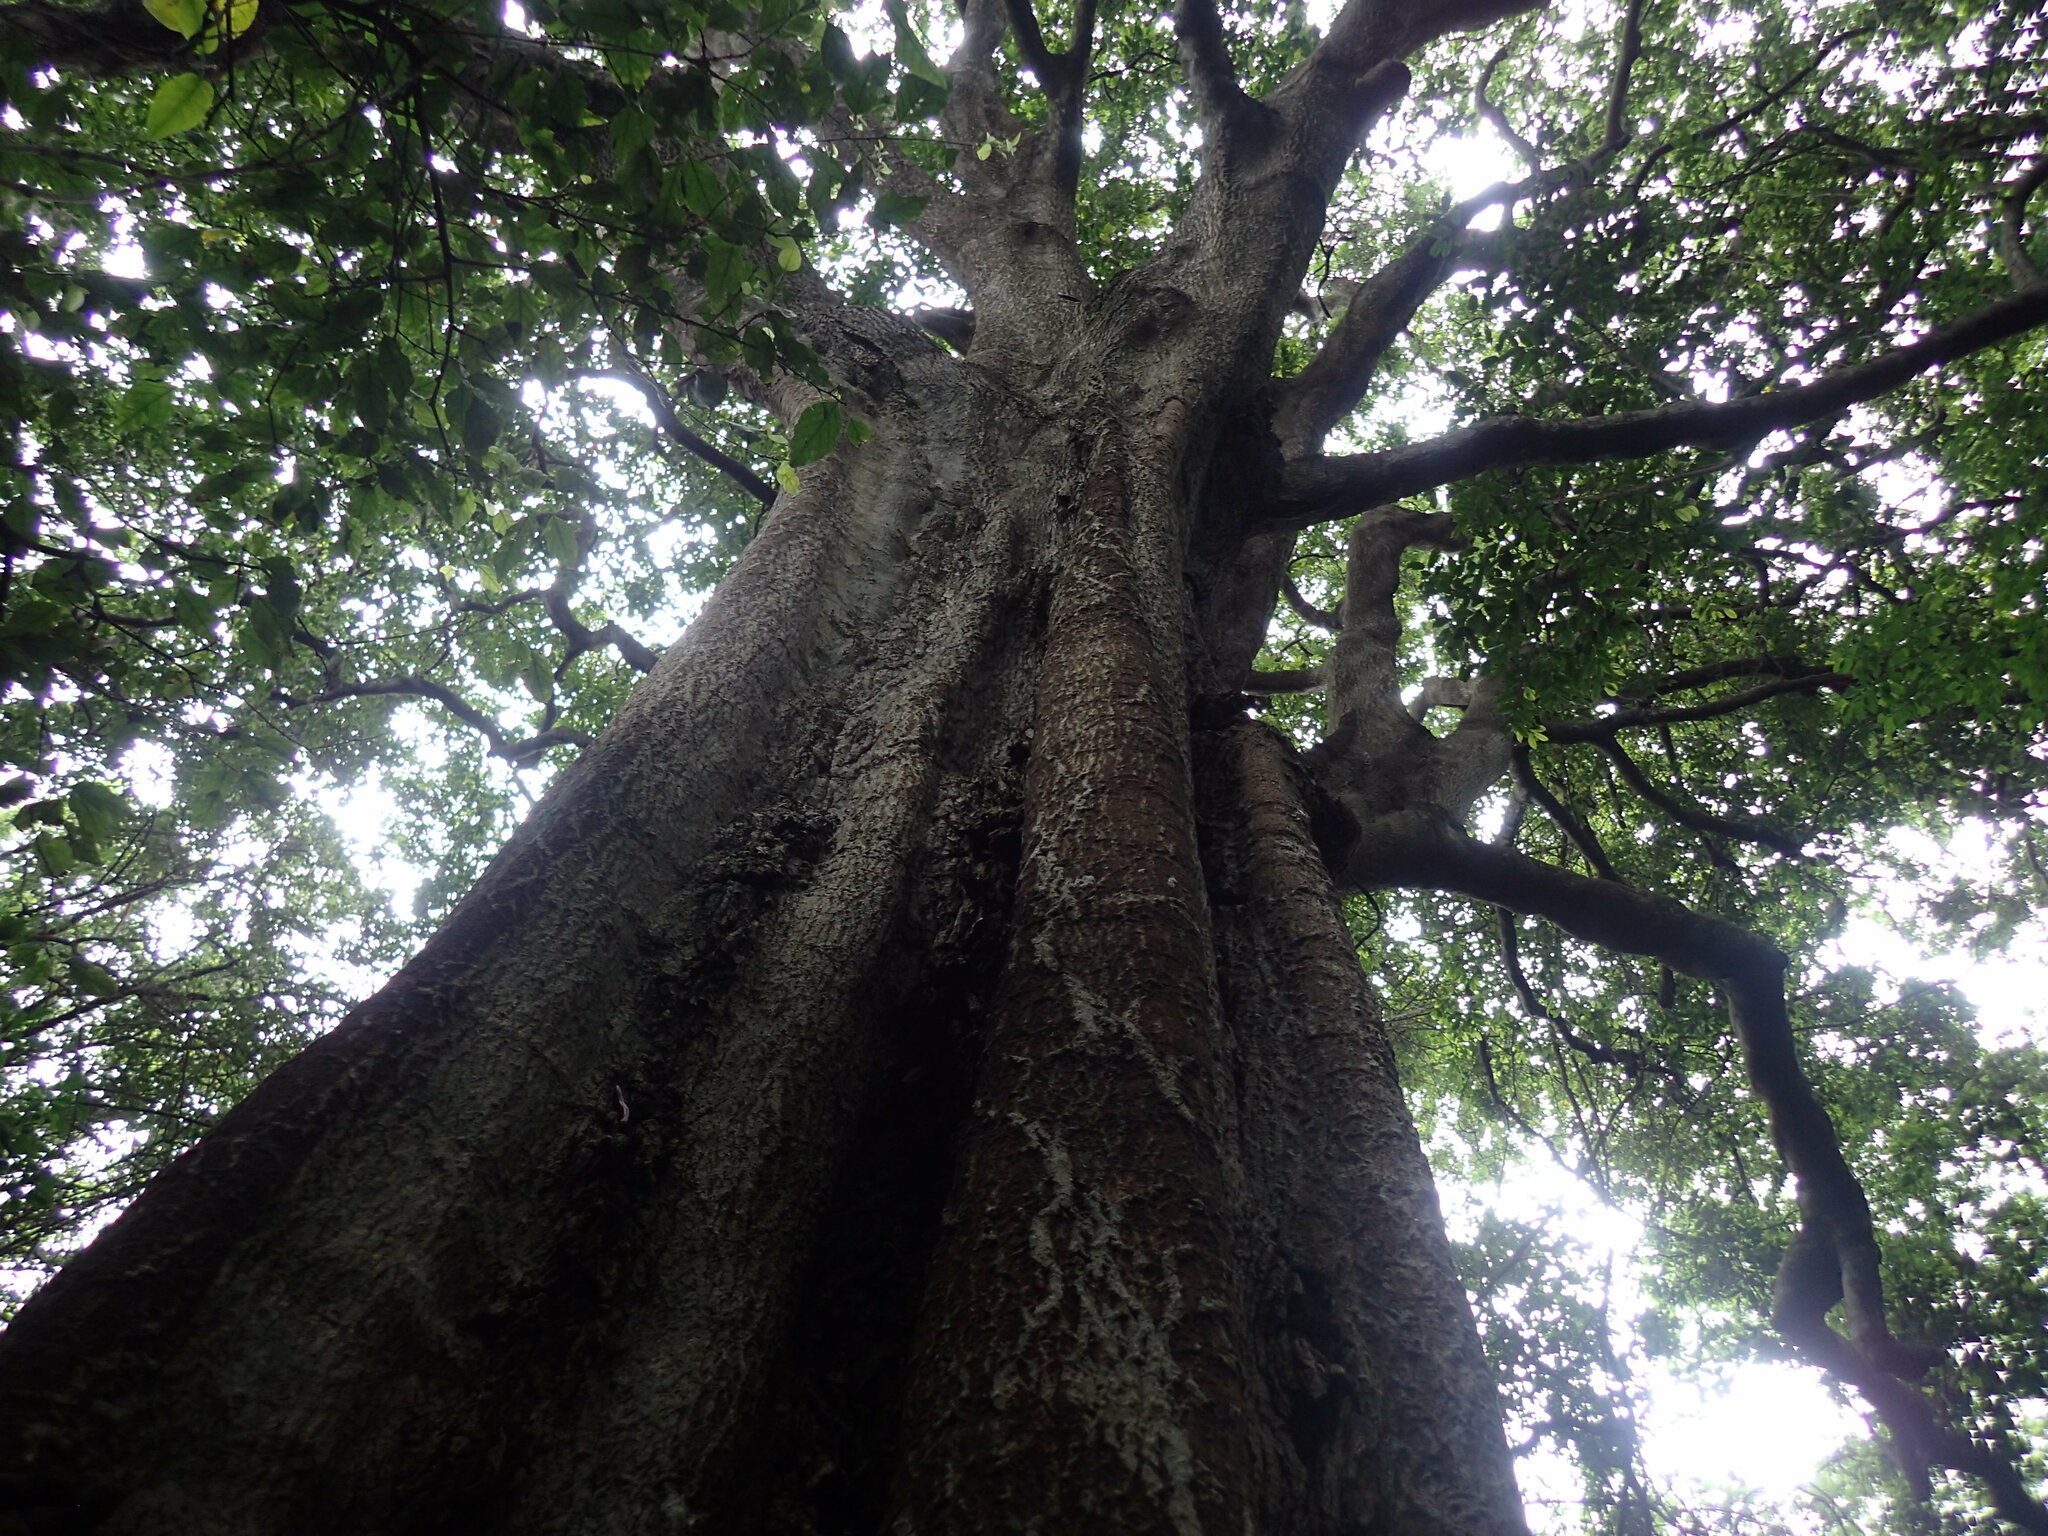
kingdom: Plantae
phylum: Tracheophyta
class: Magnoliopsida
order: Ericales
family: Sapotaceae
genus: Donella
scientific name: Donella viridifolia
